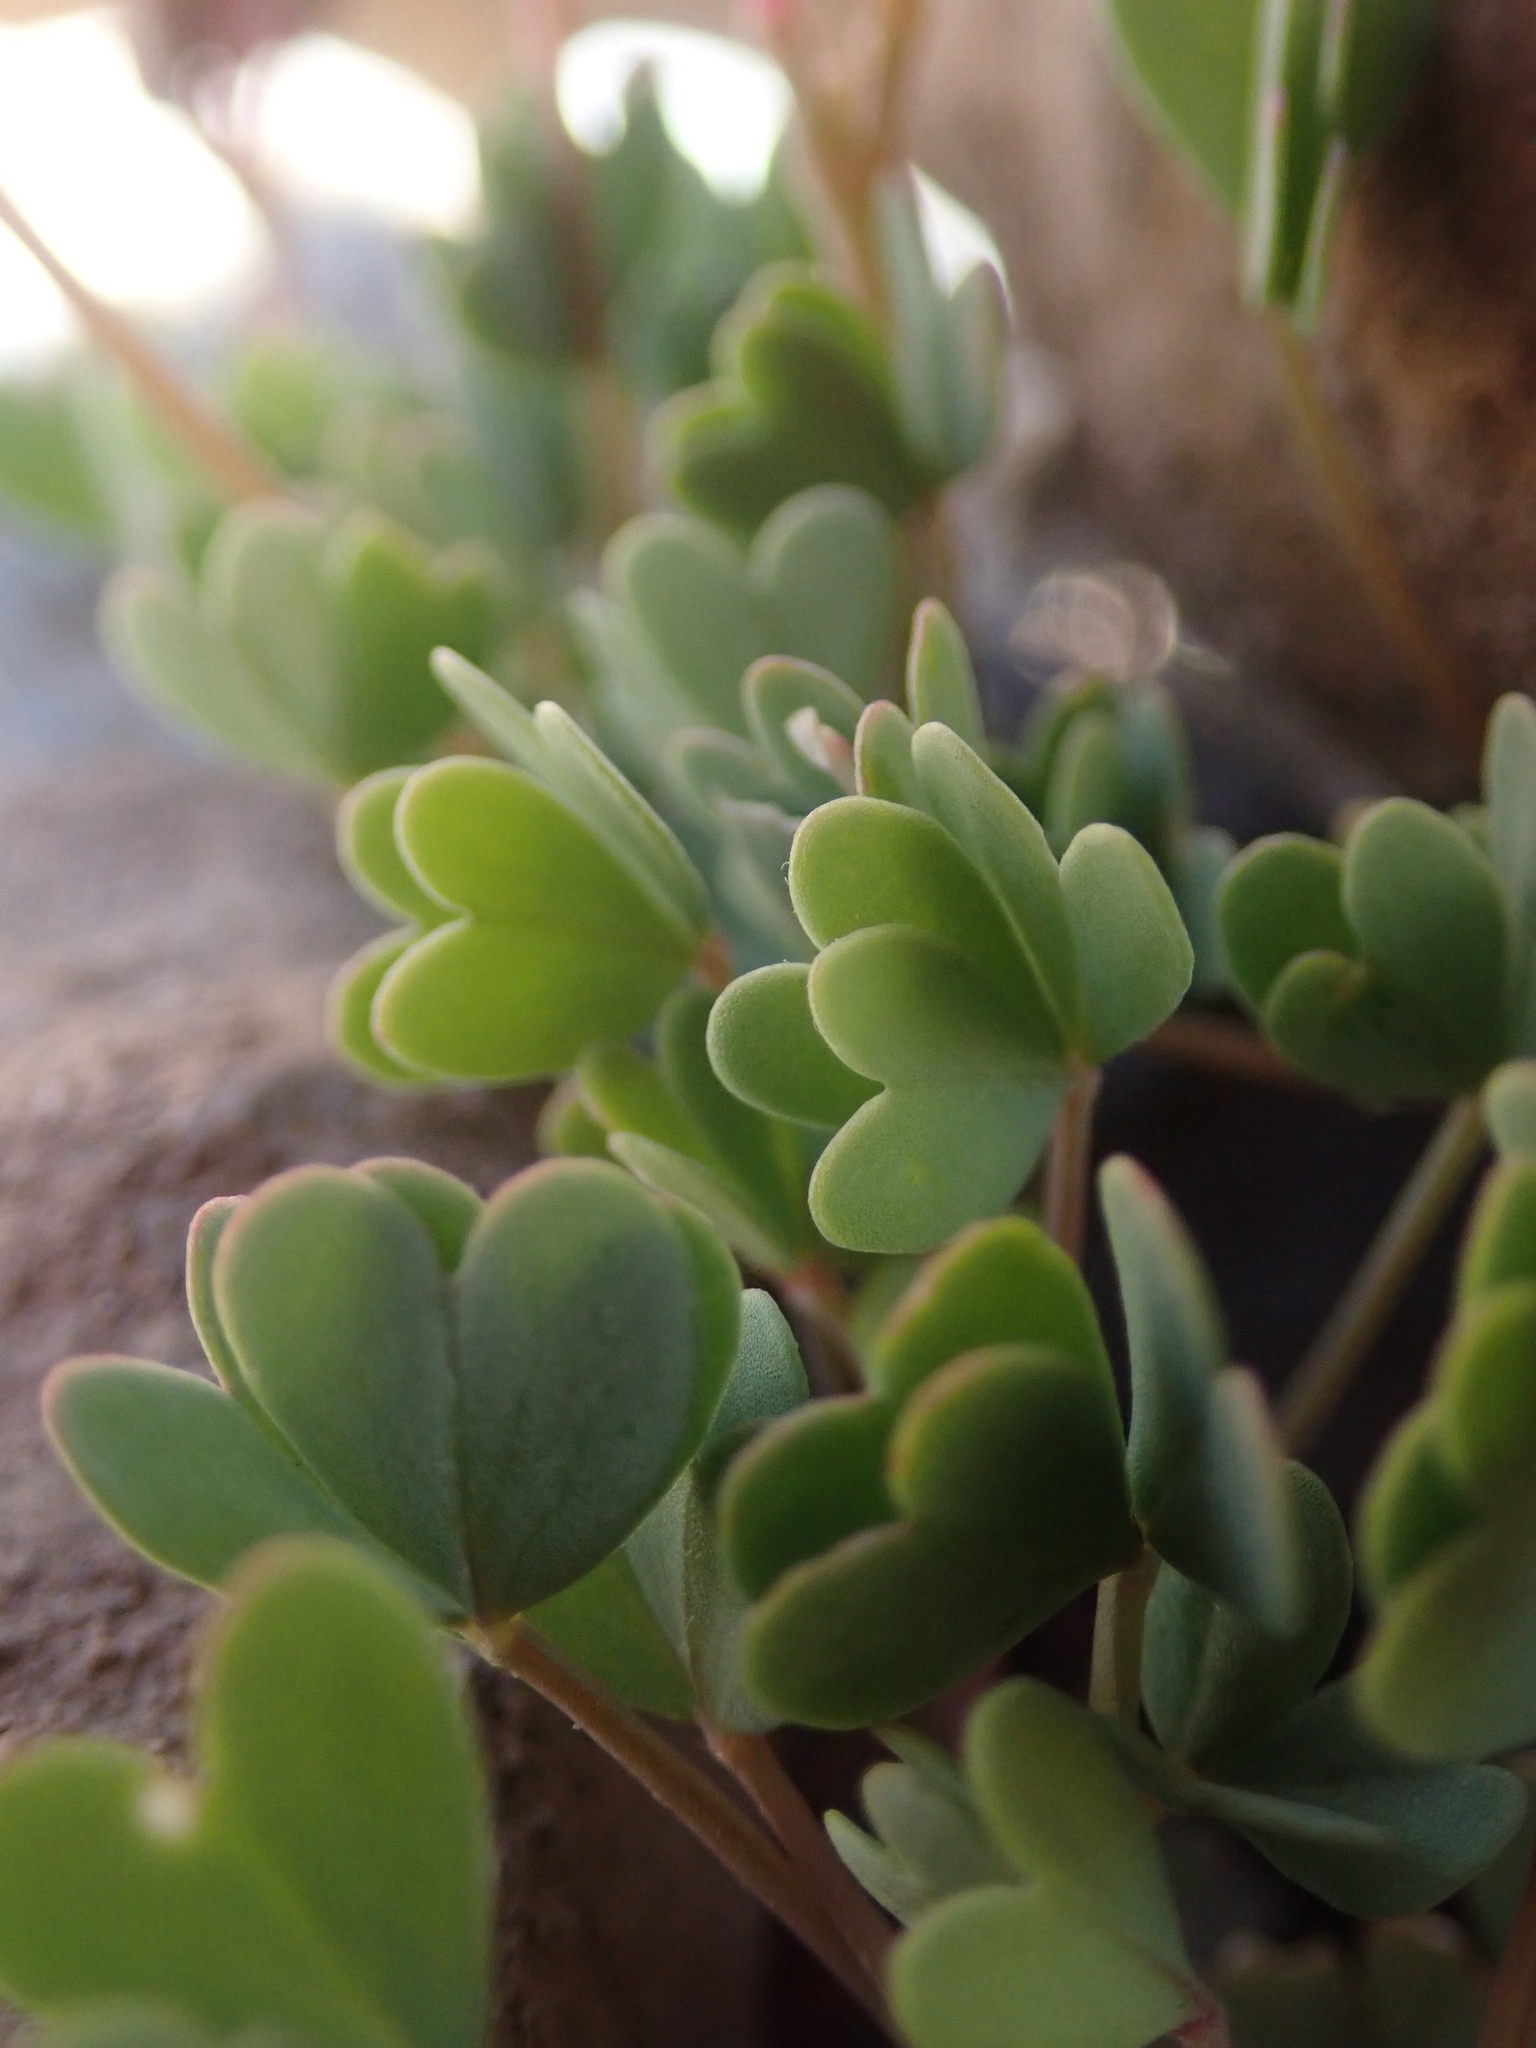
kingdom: Plantae
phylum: Tracheophyta
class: Magnoliopsida
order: Oxalidales
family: Oxalidaceae
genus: Oxalis
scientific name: Oxalis squamata
